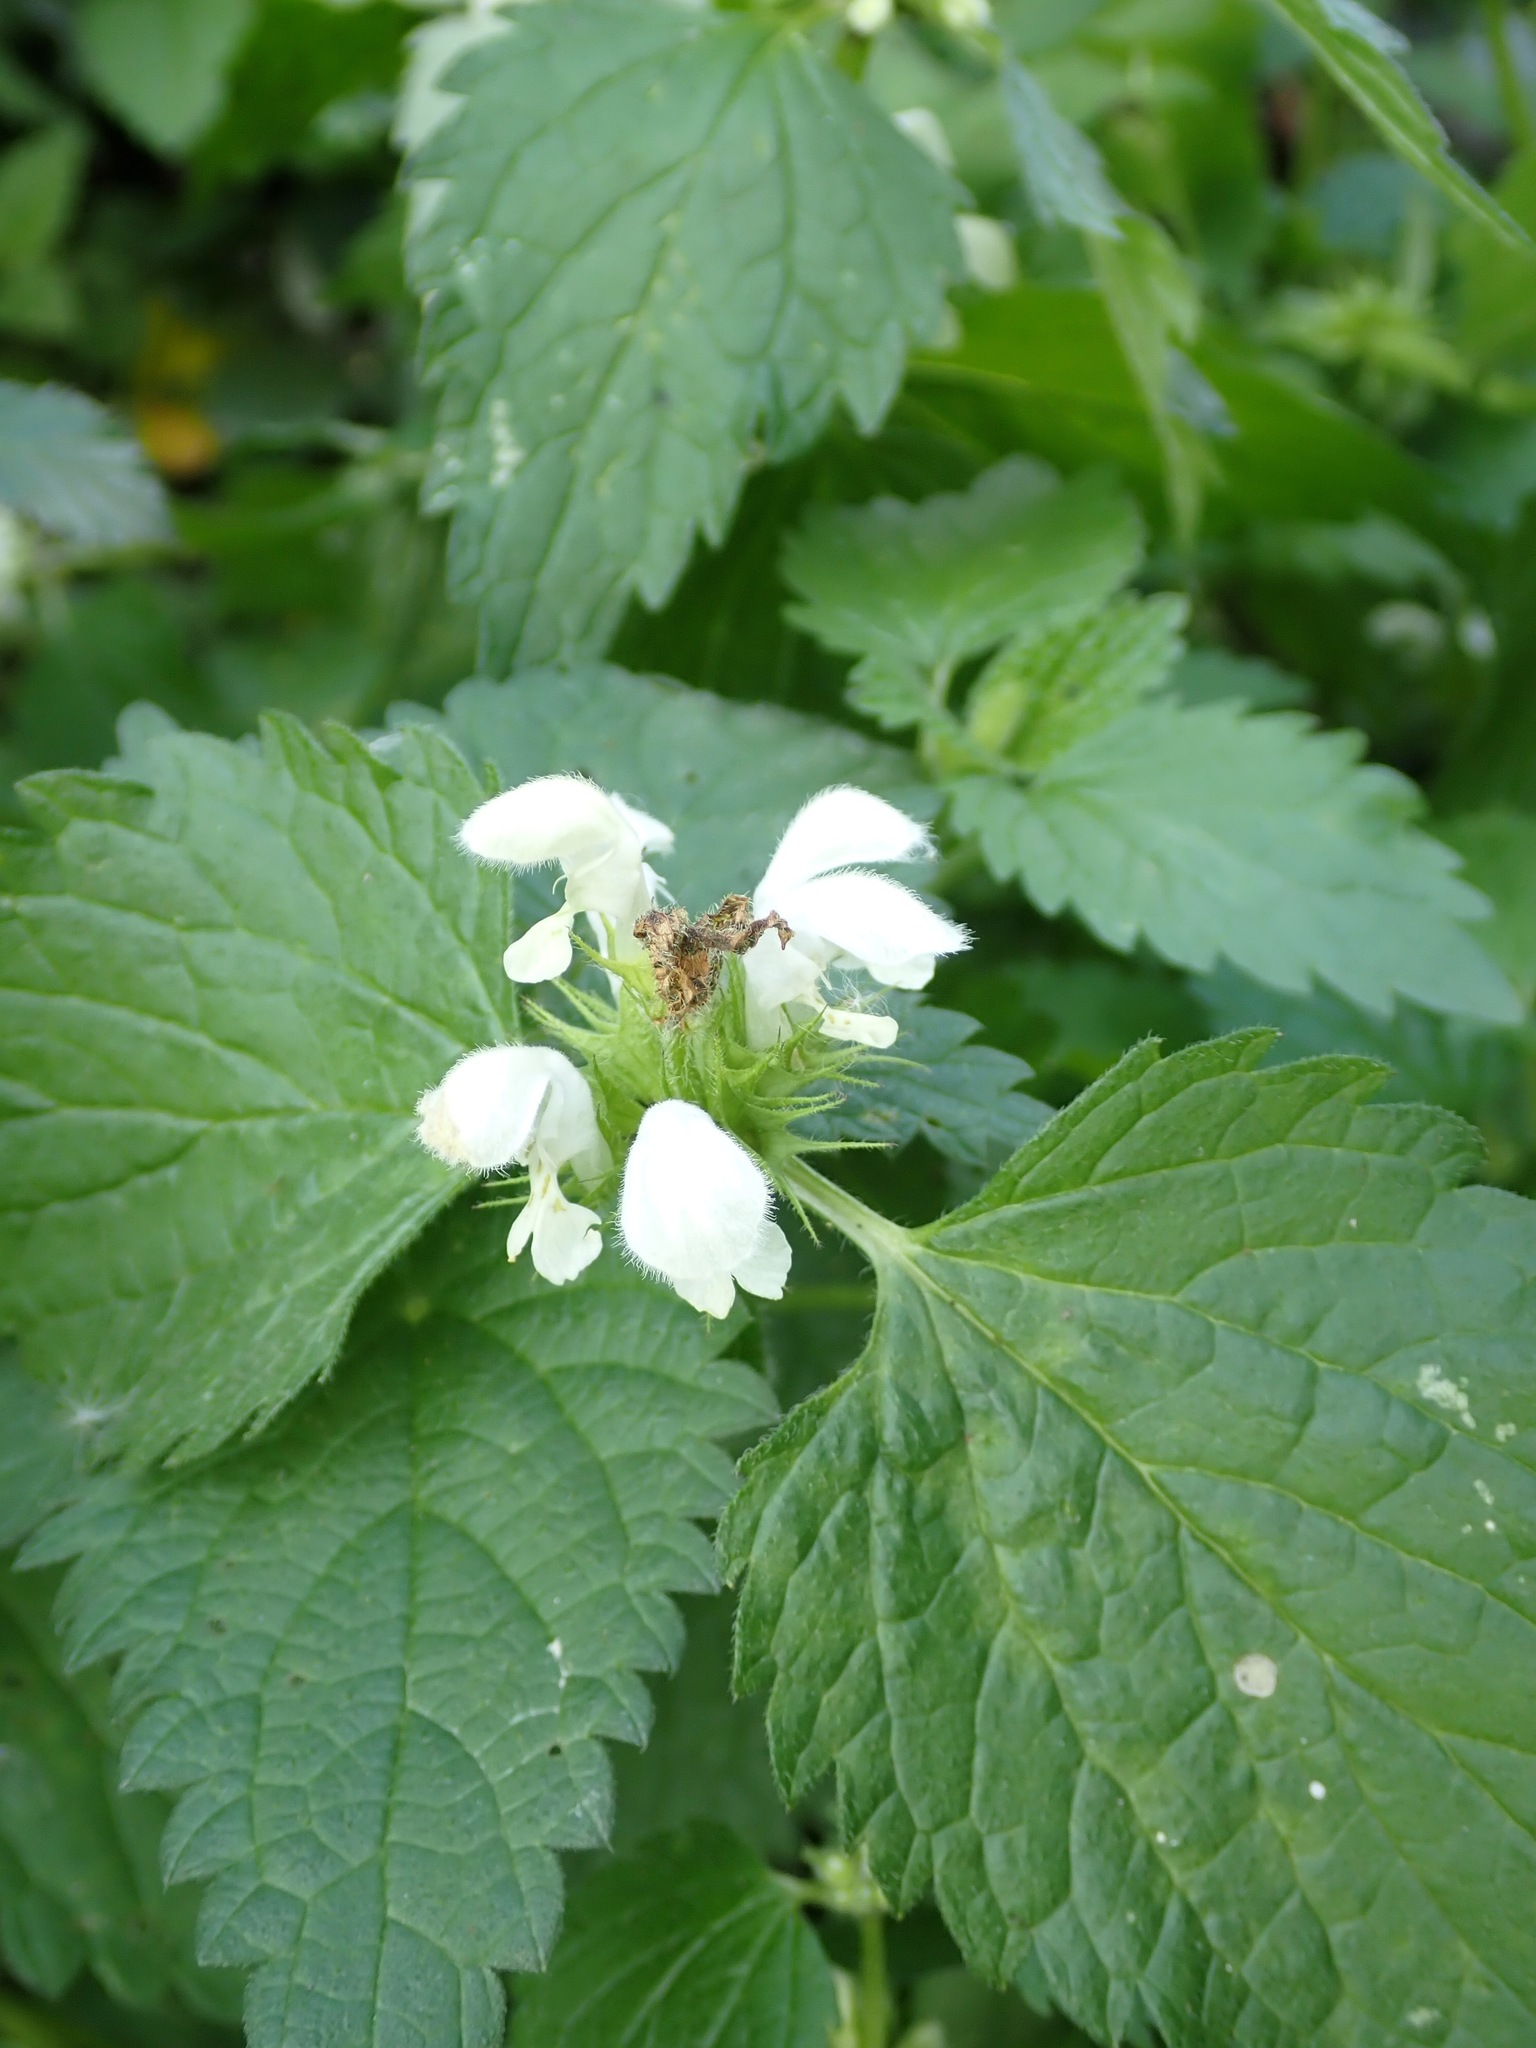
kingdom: Plantae
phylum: Tracheophyta
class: Magnoliopsida
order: Lamiales
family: Lamiaceae
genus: Lamium
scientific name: Lamium album
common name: White dead-nettle
